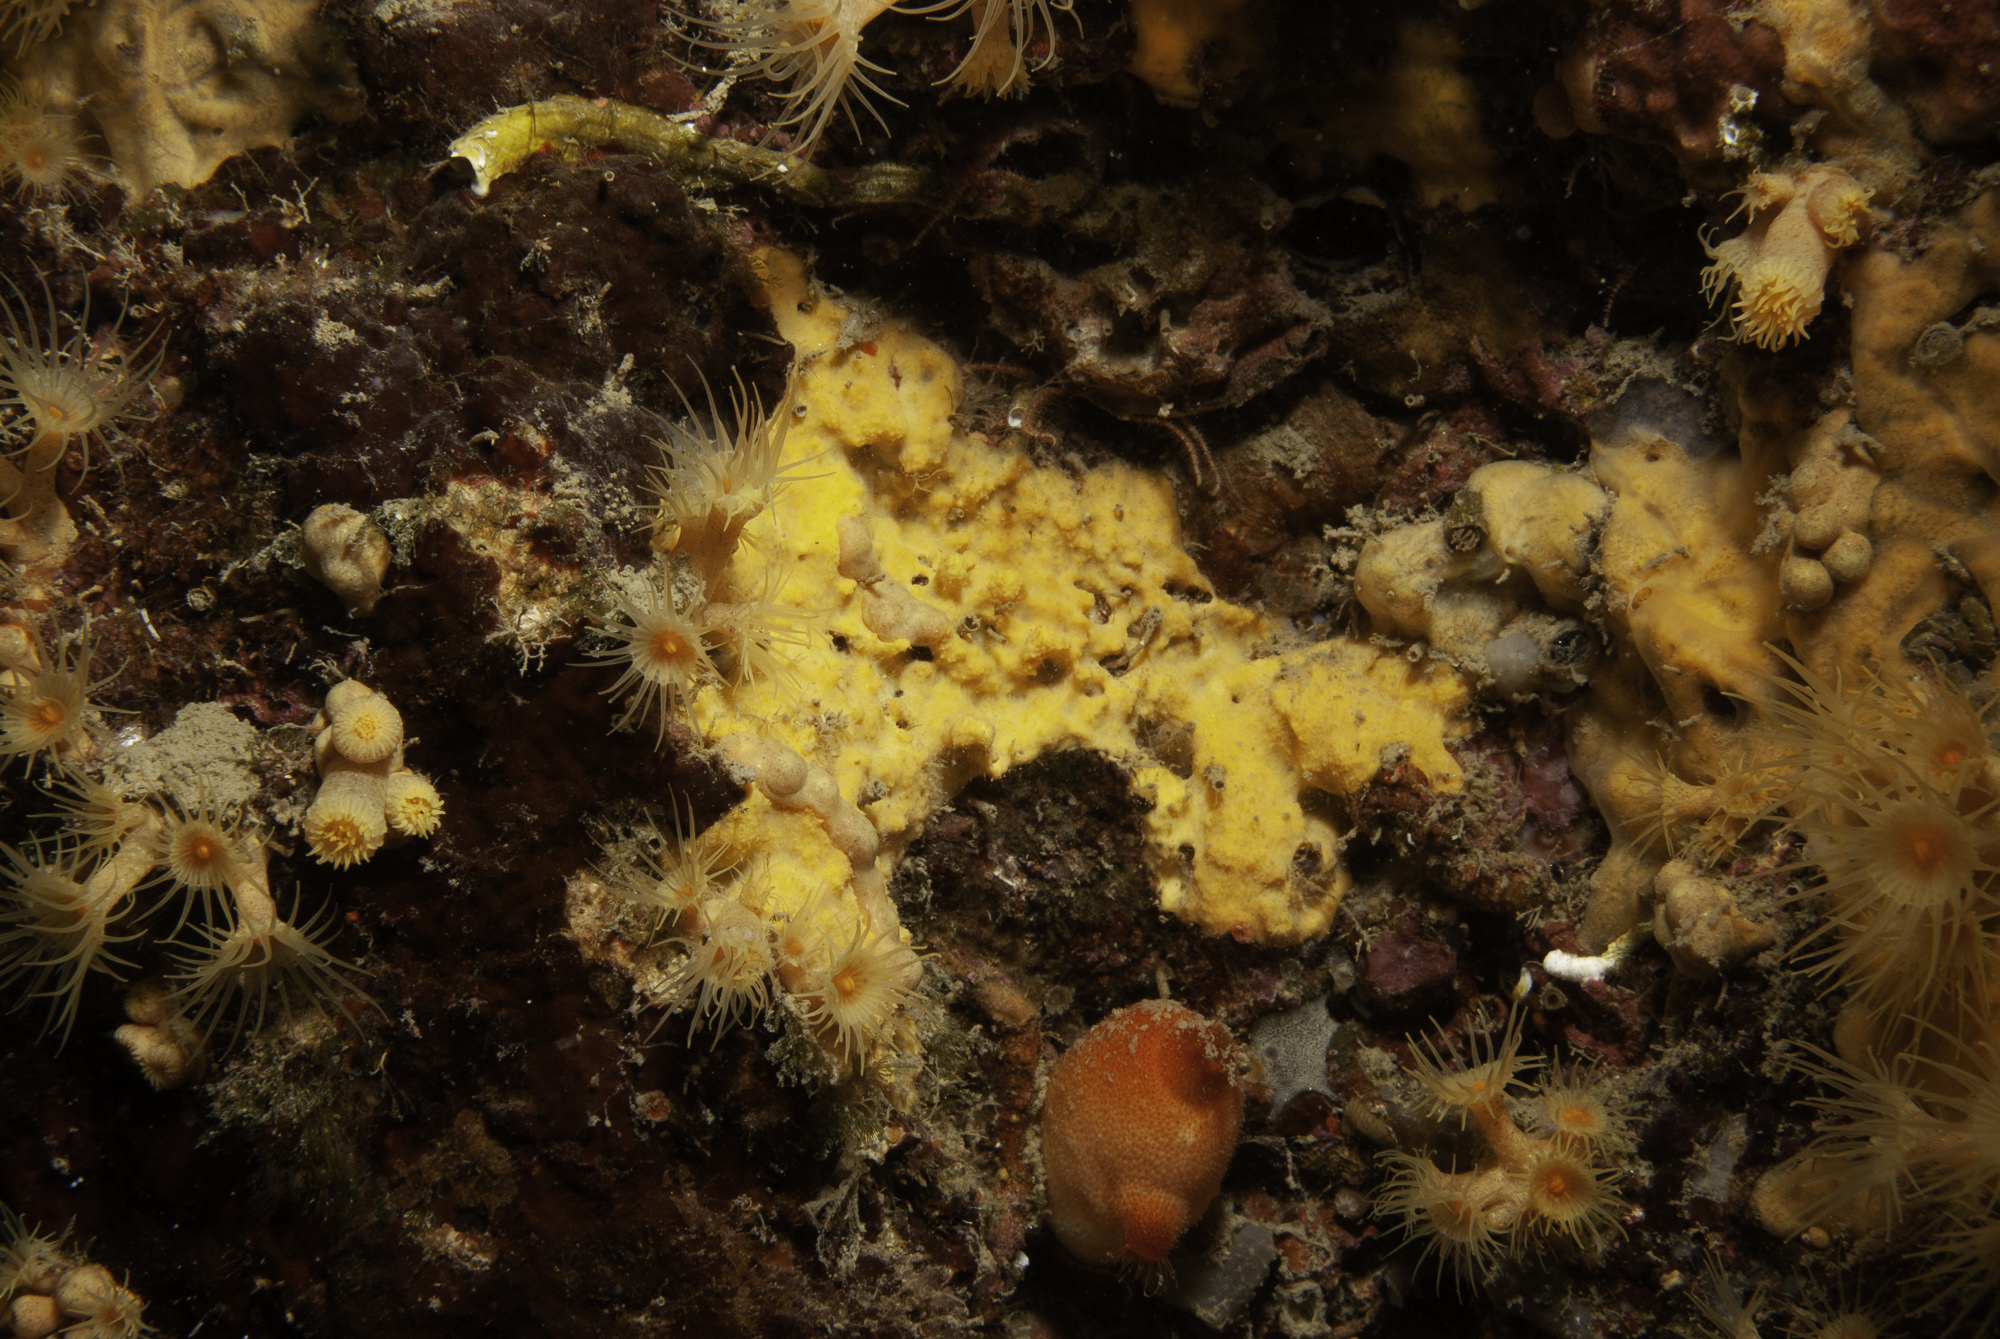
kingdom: Animalia
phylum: Porifera
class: Demospongiae
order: Agelasida
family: Hymerhabdiidae
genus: Prosuberites
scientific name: Prosuberites longispinus
